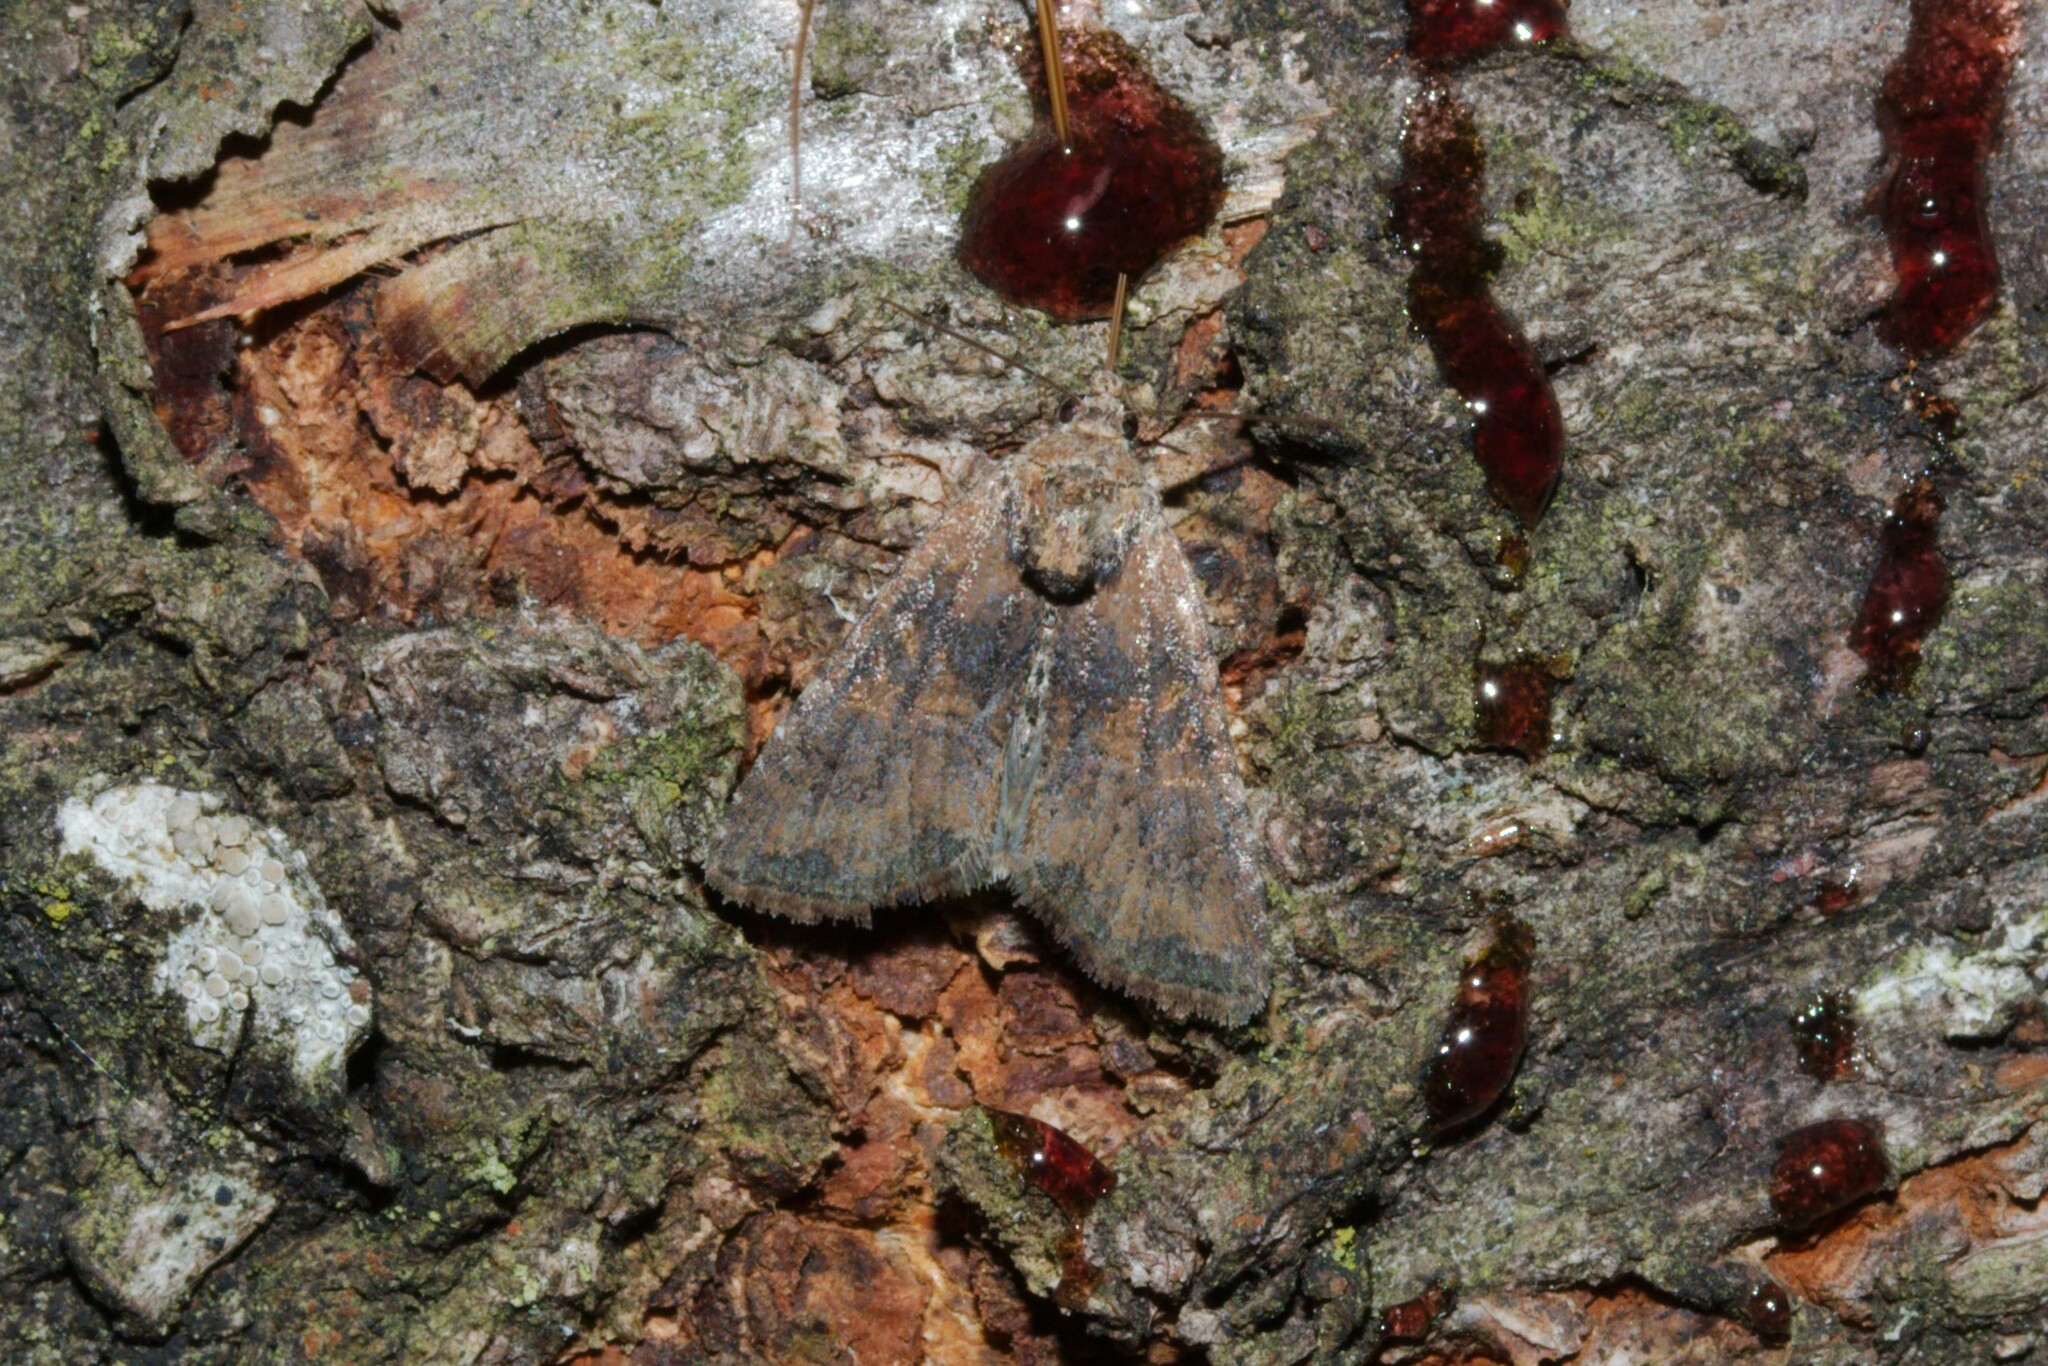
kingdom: Animalia
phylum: Arthropoda
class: Insecta
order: Lepidoptera
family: Noctuidae
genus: Mesoligia
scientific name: Mesoligia furuncula
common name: Cloaked minor
